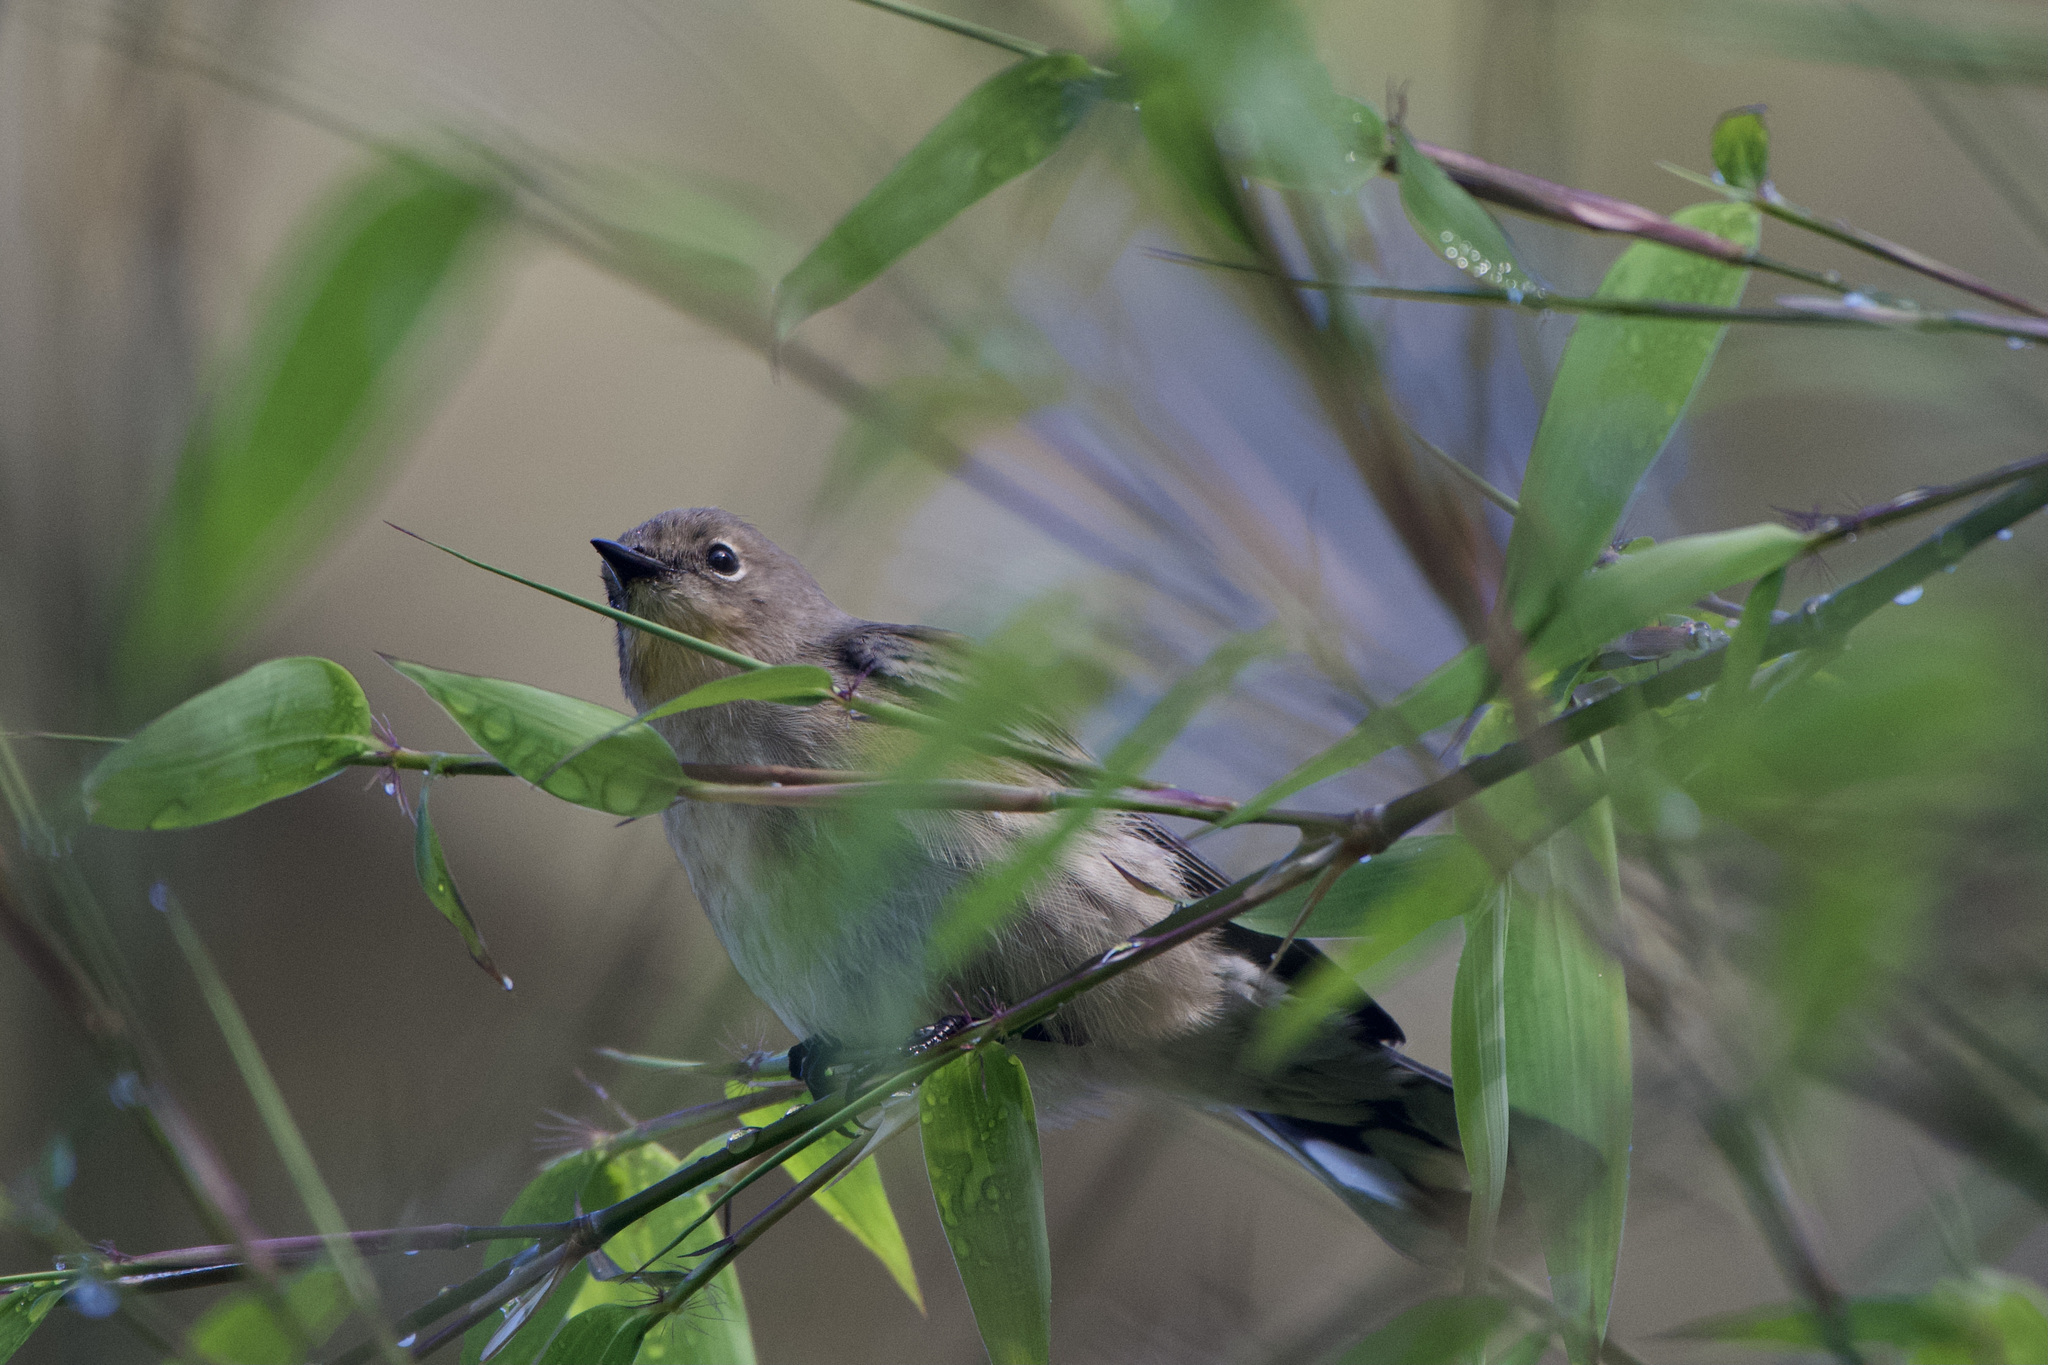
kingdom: Animalia
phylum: Chordata
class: Aves
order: Passeriformes
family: Parulidae
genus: Setophaga
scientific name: Setophaga auduboni
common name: Audubon's warbler
